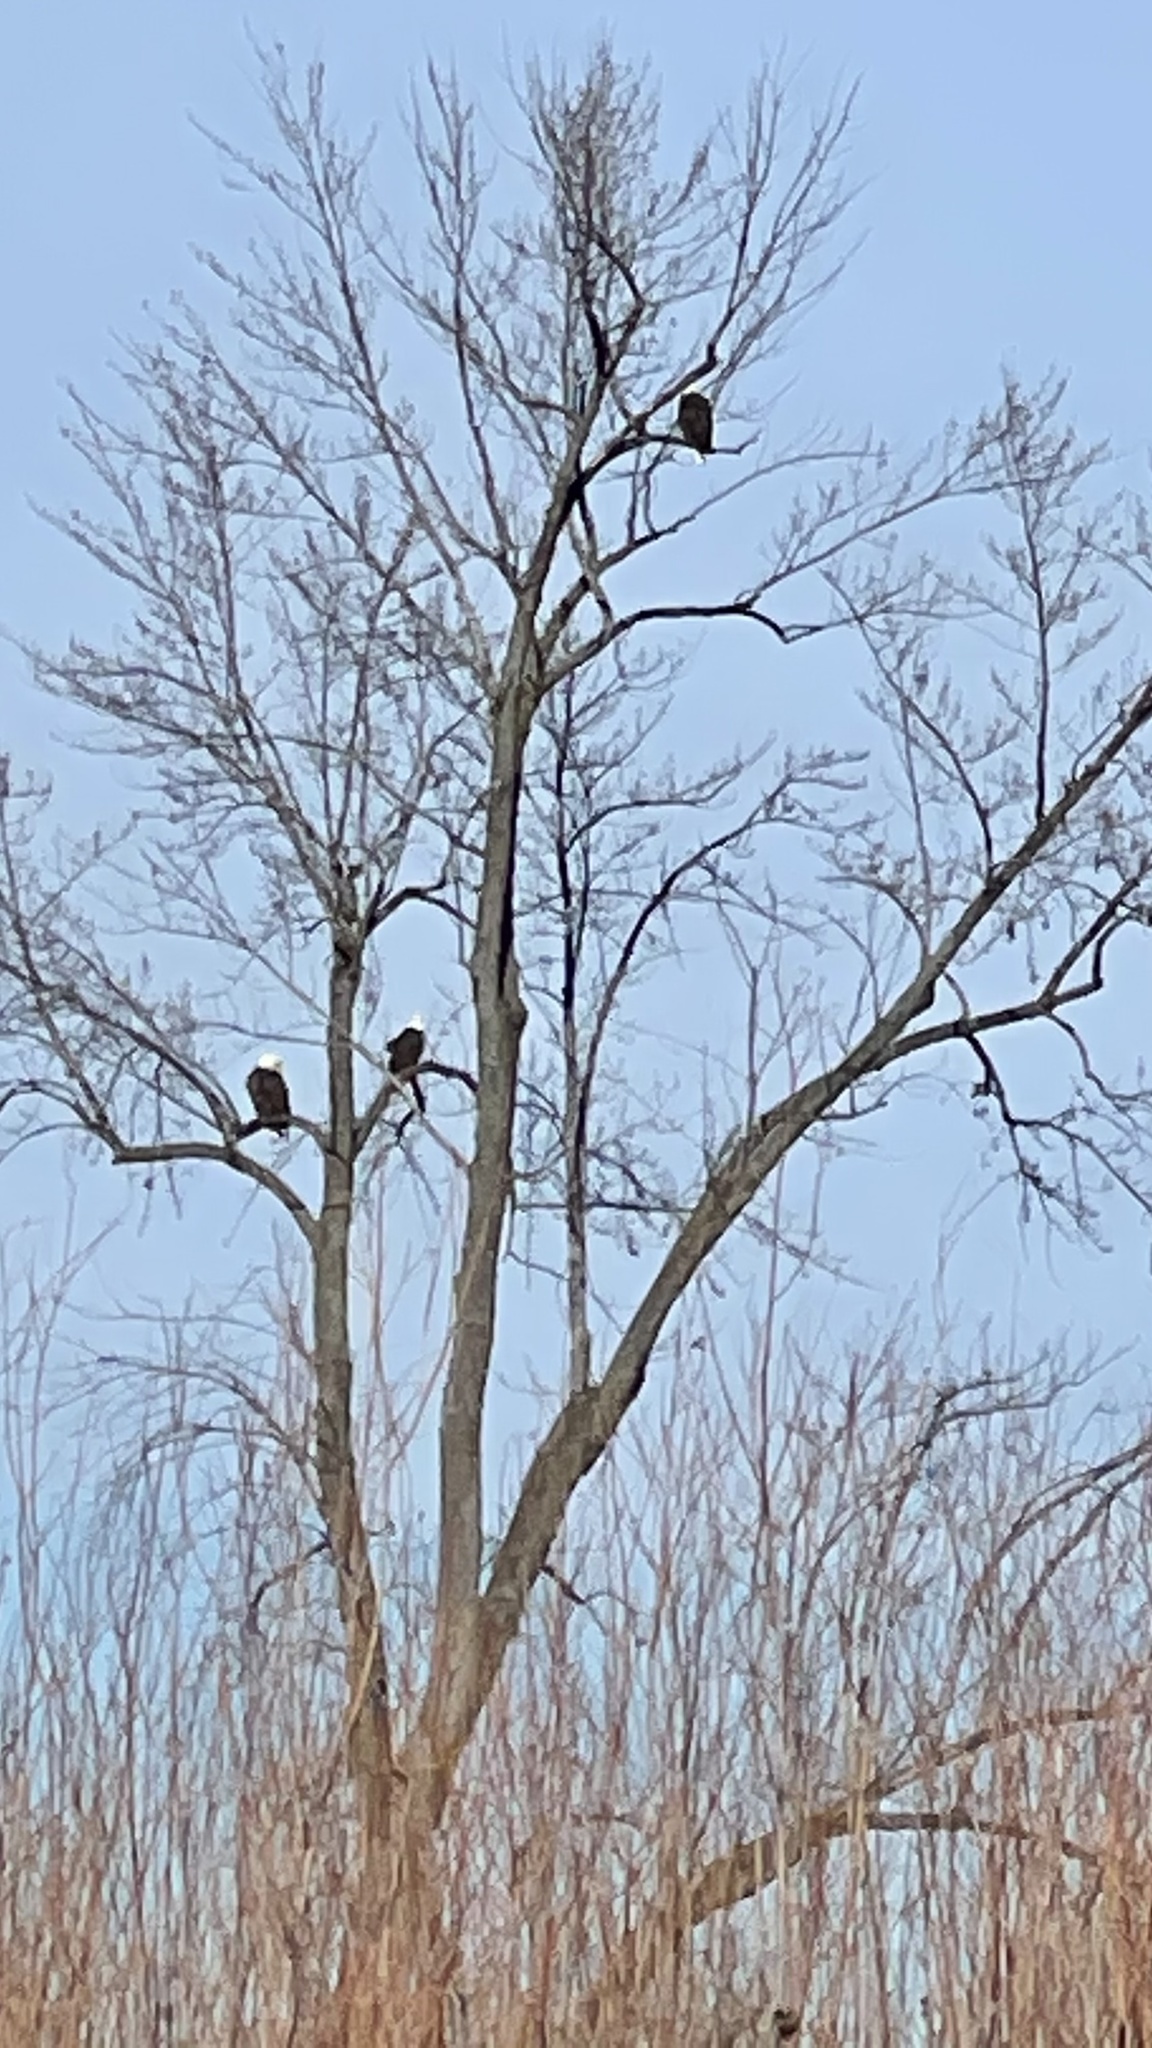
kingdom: Animalia
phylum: Chordata
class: Aves
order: Accipitriformes
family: Accipitridae
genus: Haliaeetus
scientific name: Haliaeetus leucocephalus
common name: Bald eagle
